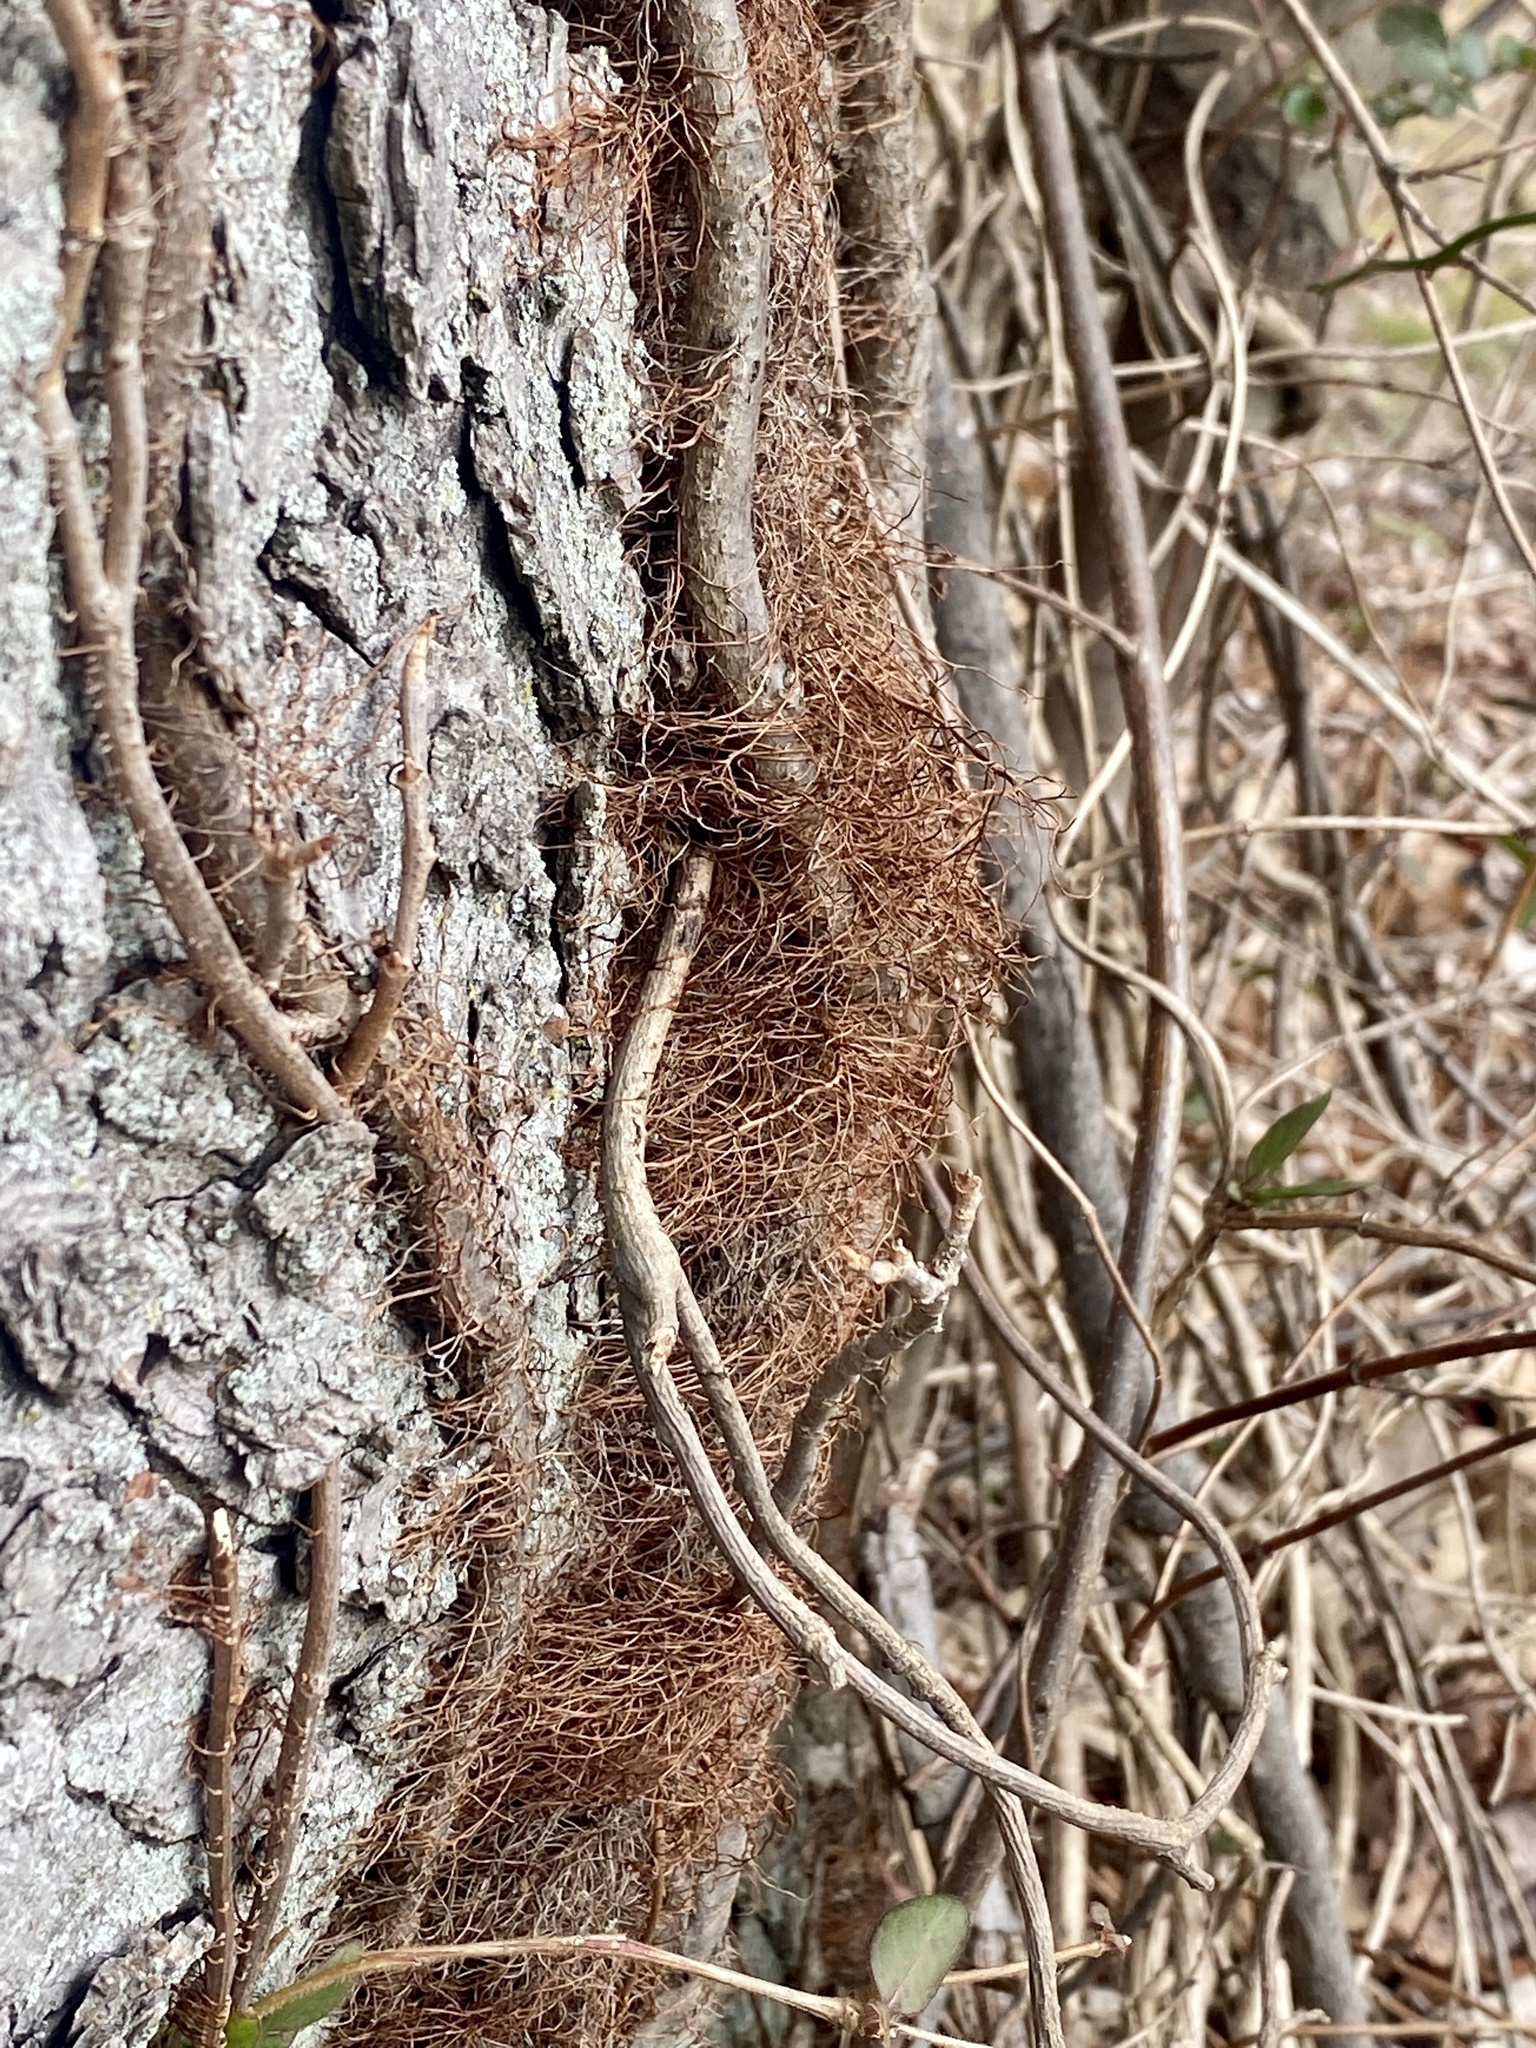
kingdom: Plantae
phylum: Tracheophyta
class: Magnoliopsida
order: Sapindales
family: Anacardiaceae
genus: Toxicodendron
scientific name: Toxicodendron radicans
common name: Poison ivy
